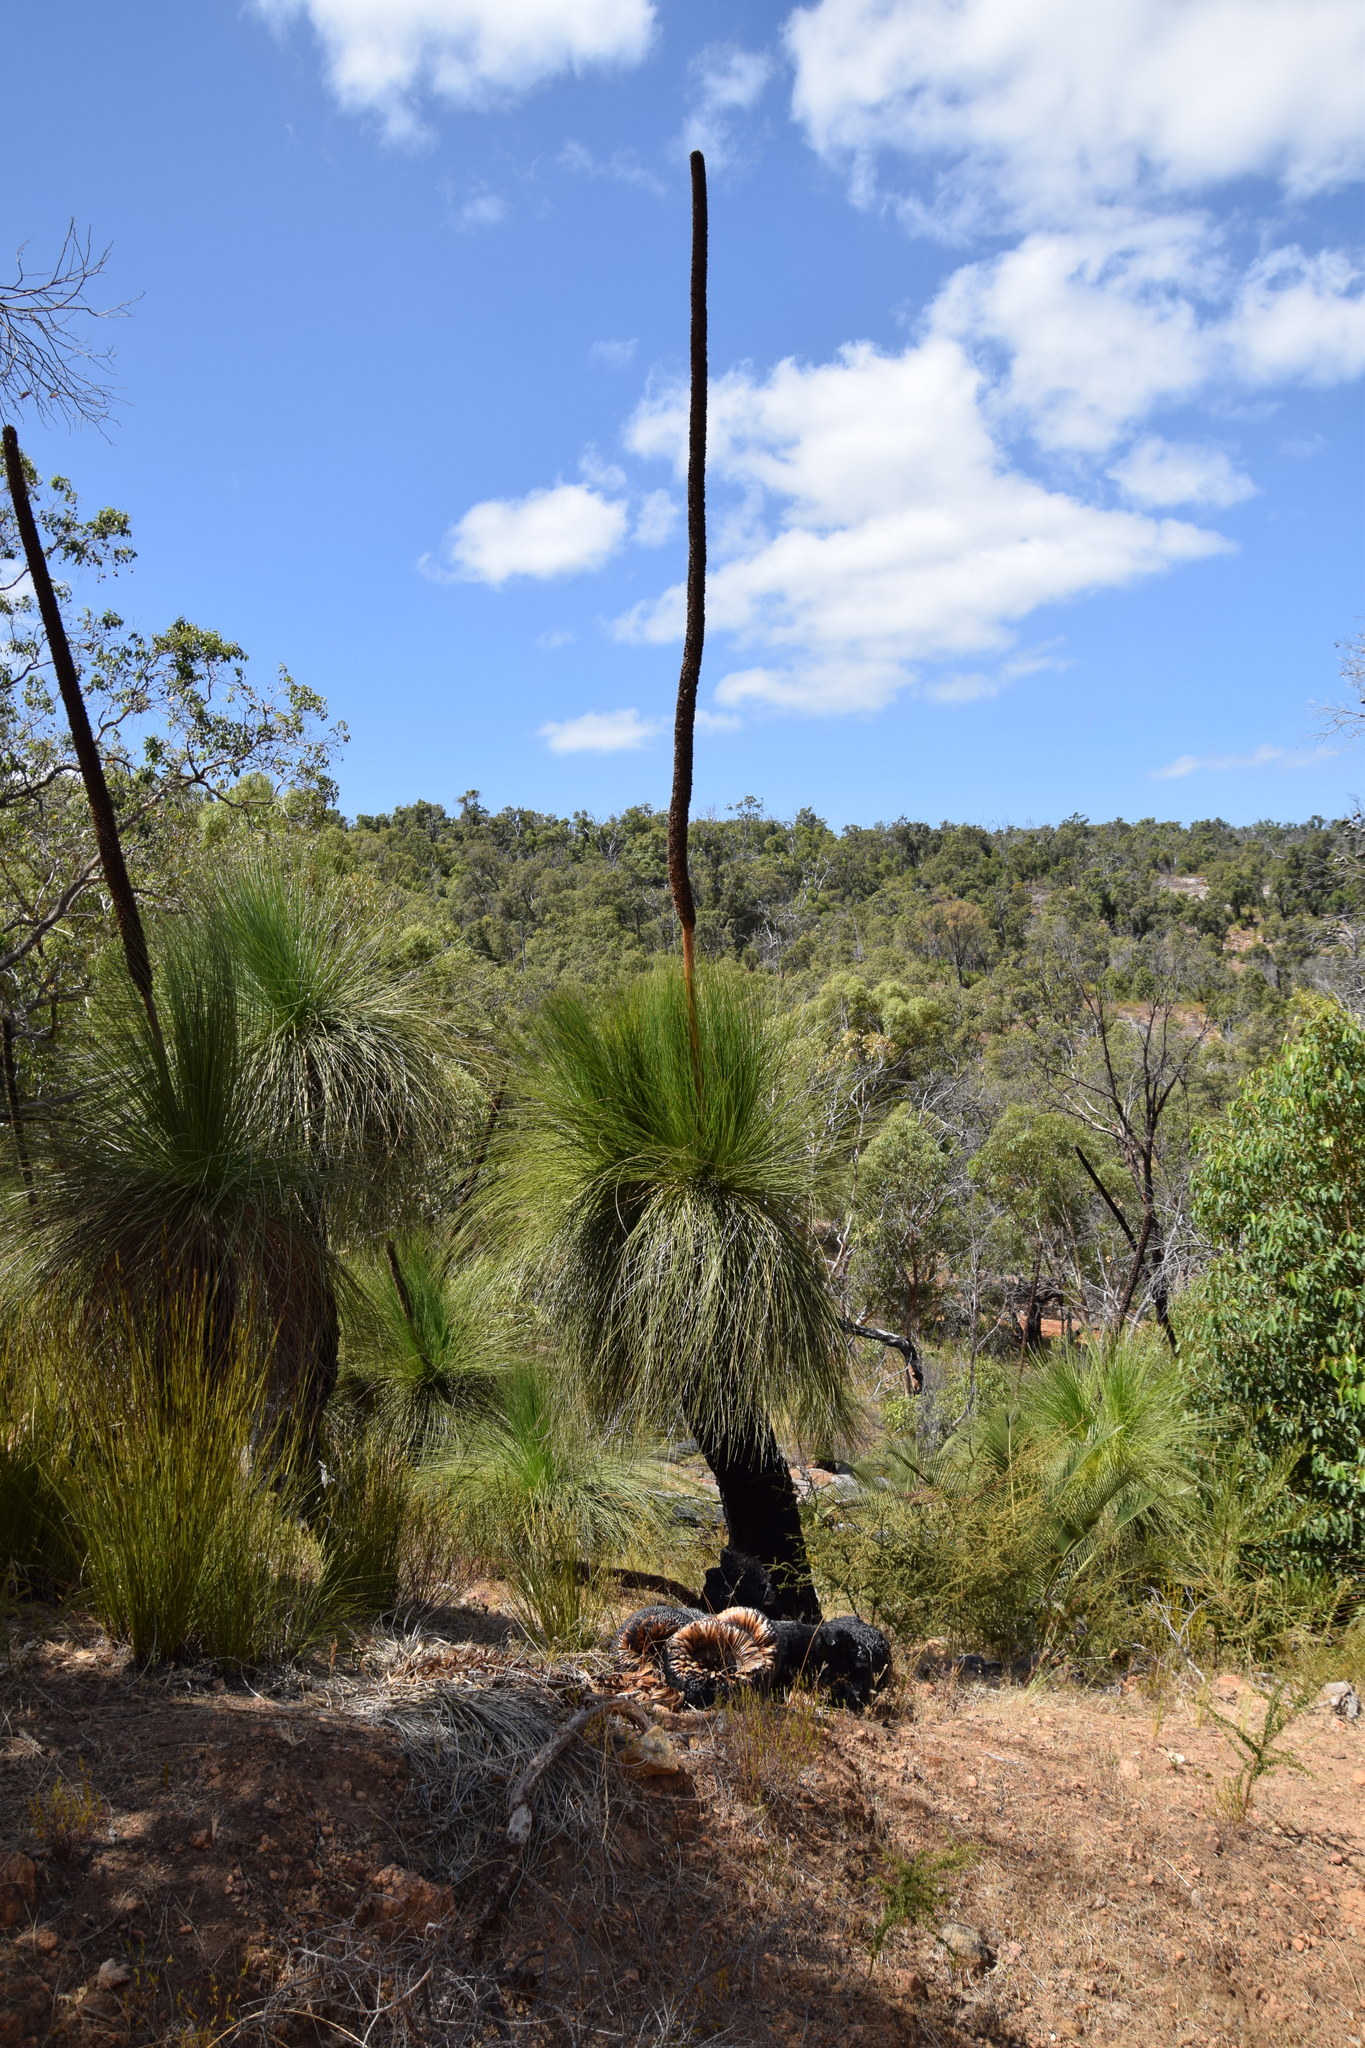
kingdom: Plantae
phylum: Tracheophyta
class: Liliopsida
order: Asparagales
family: Asphodelaceae
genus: Xanthorrhoea
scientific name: Xanthorrhoea preissii
